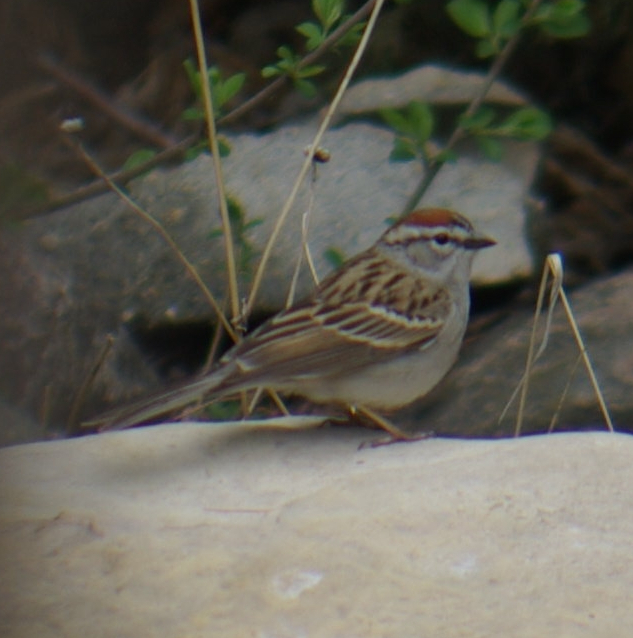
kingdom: Animalia
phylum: Chordata
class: Aves
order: Passeriformes
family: Passerellidae
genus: Spizella
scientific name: Spizella passerina
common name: Chipping sparrow
